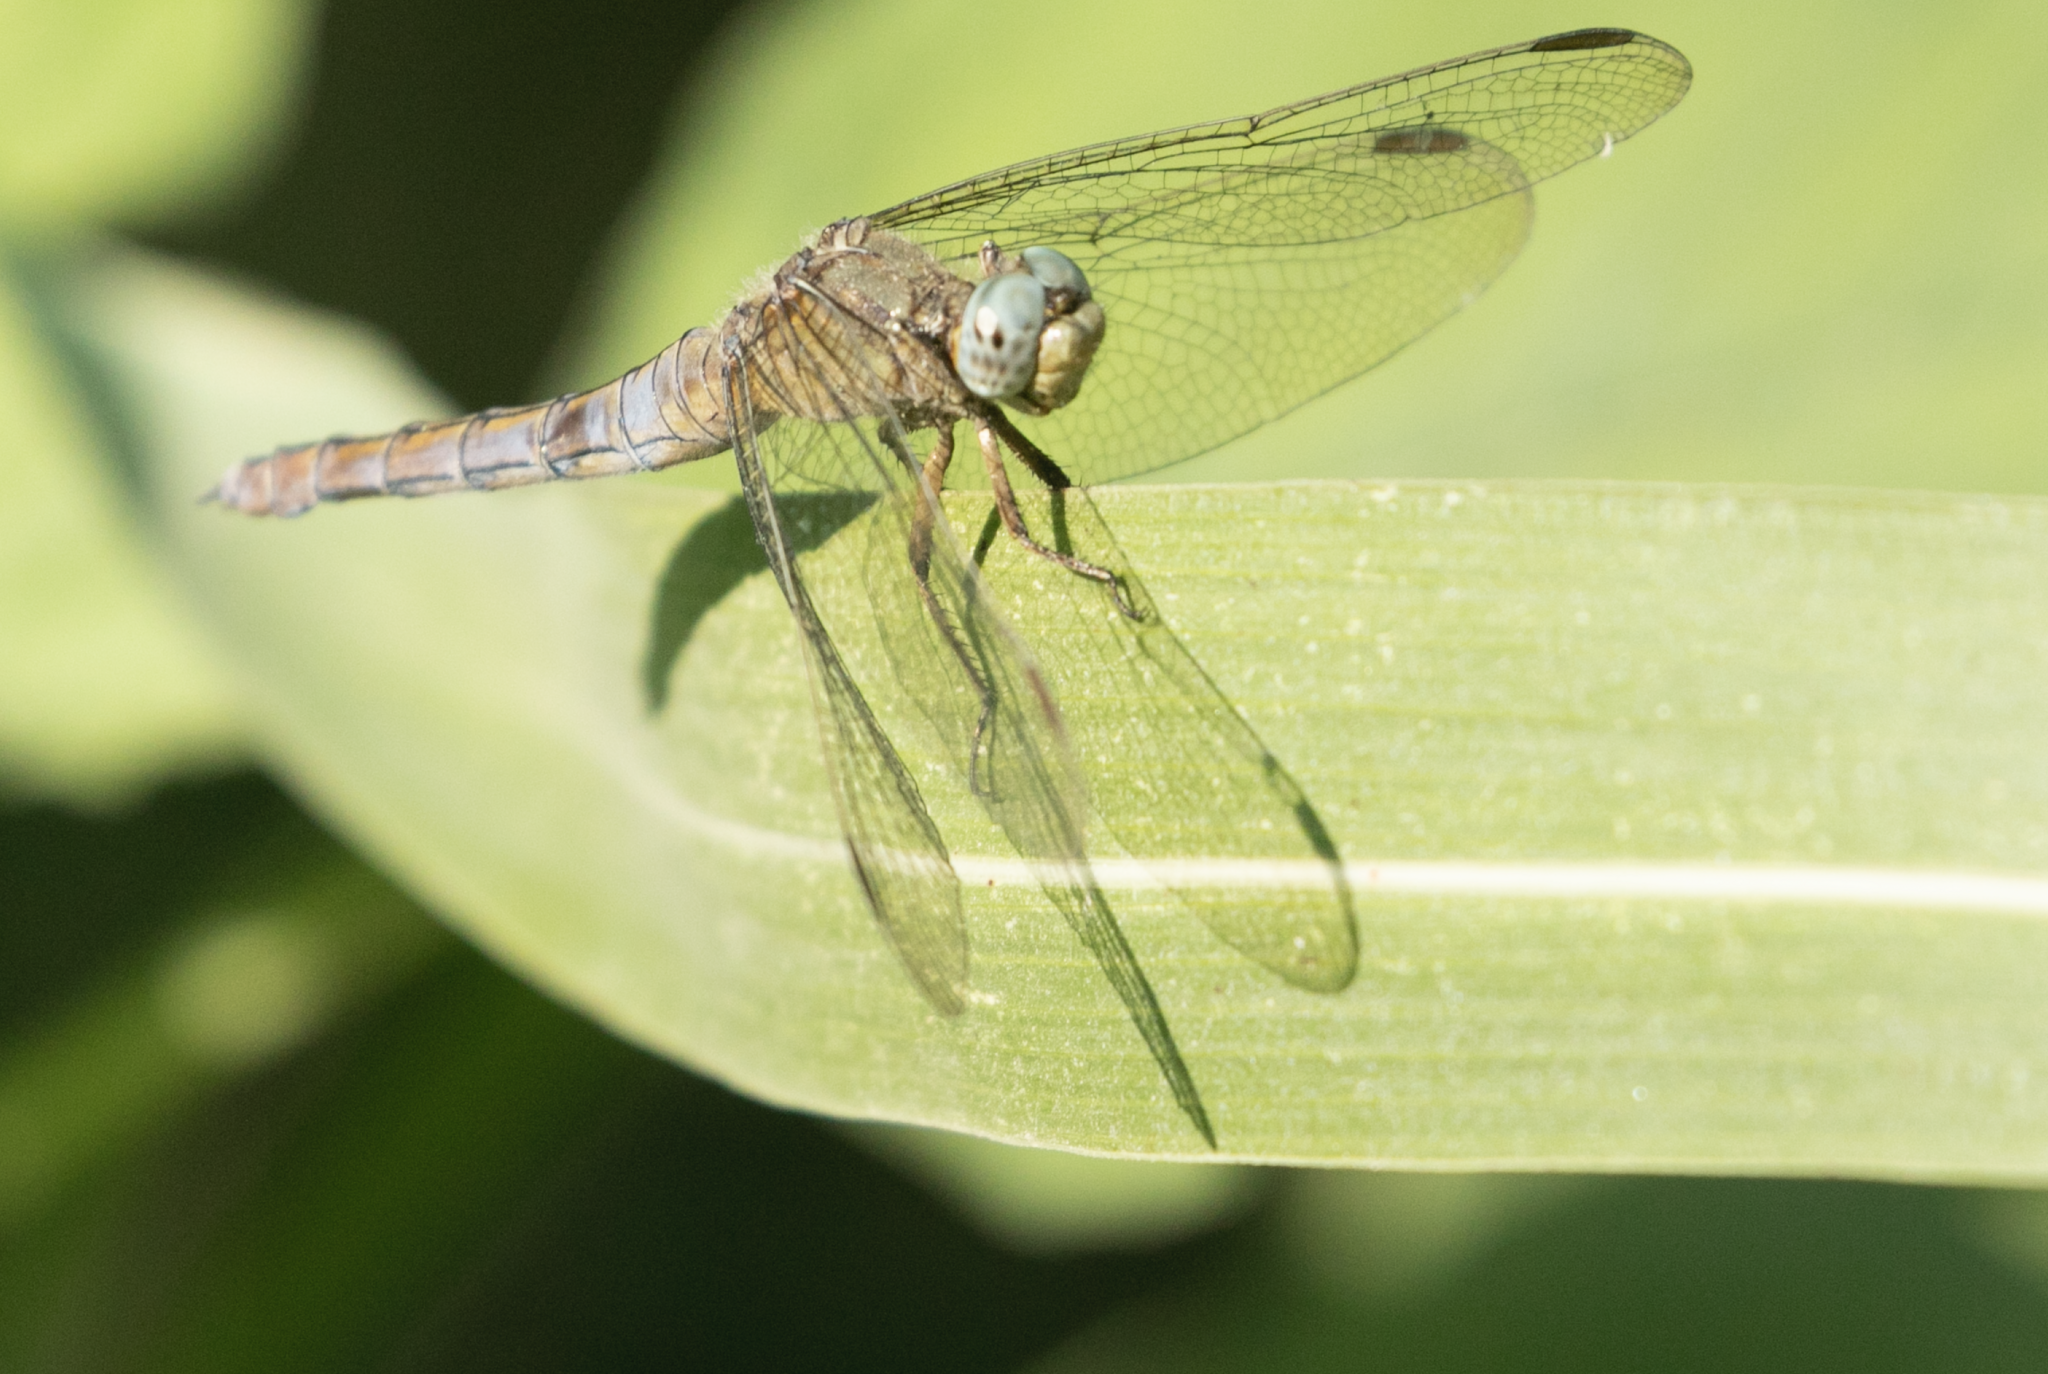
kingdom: Animalia
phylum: Arthropoda
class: Insecta
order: Odonata
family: Libellulidae
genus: Orthetrum
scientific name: Orthetrum coerulescens
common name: Keeled skimmer
